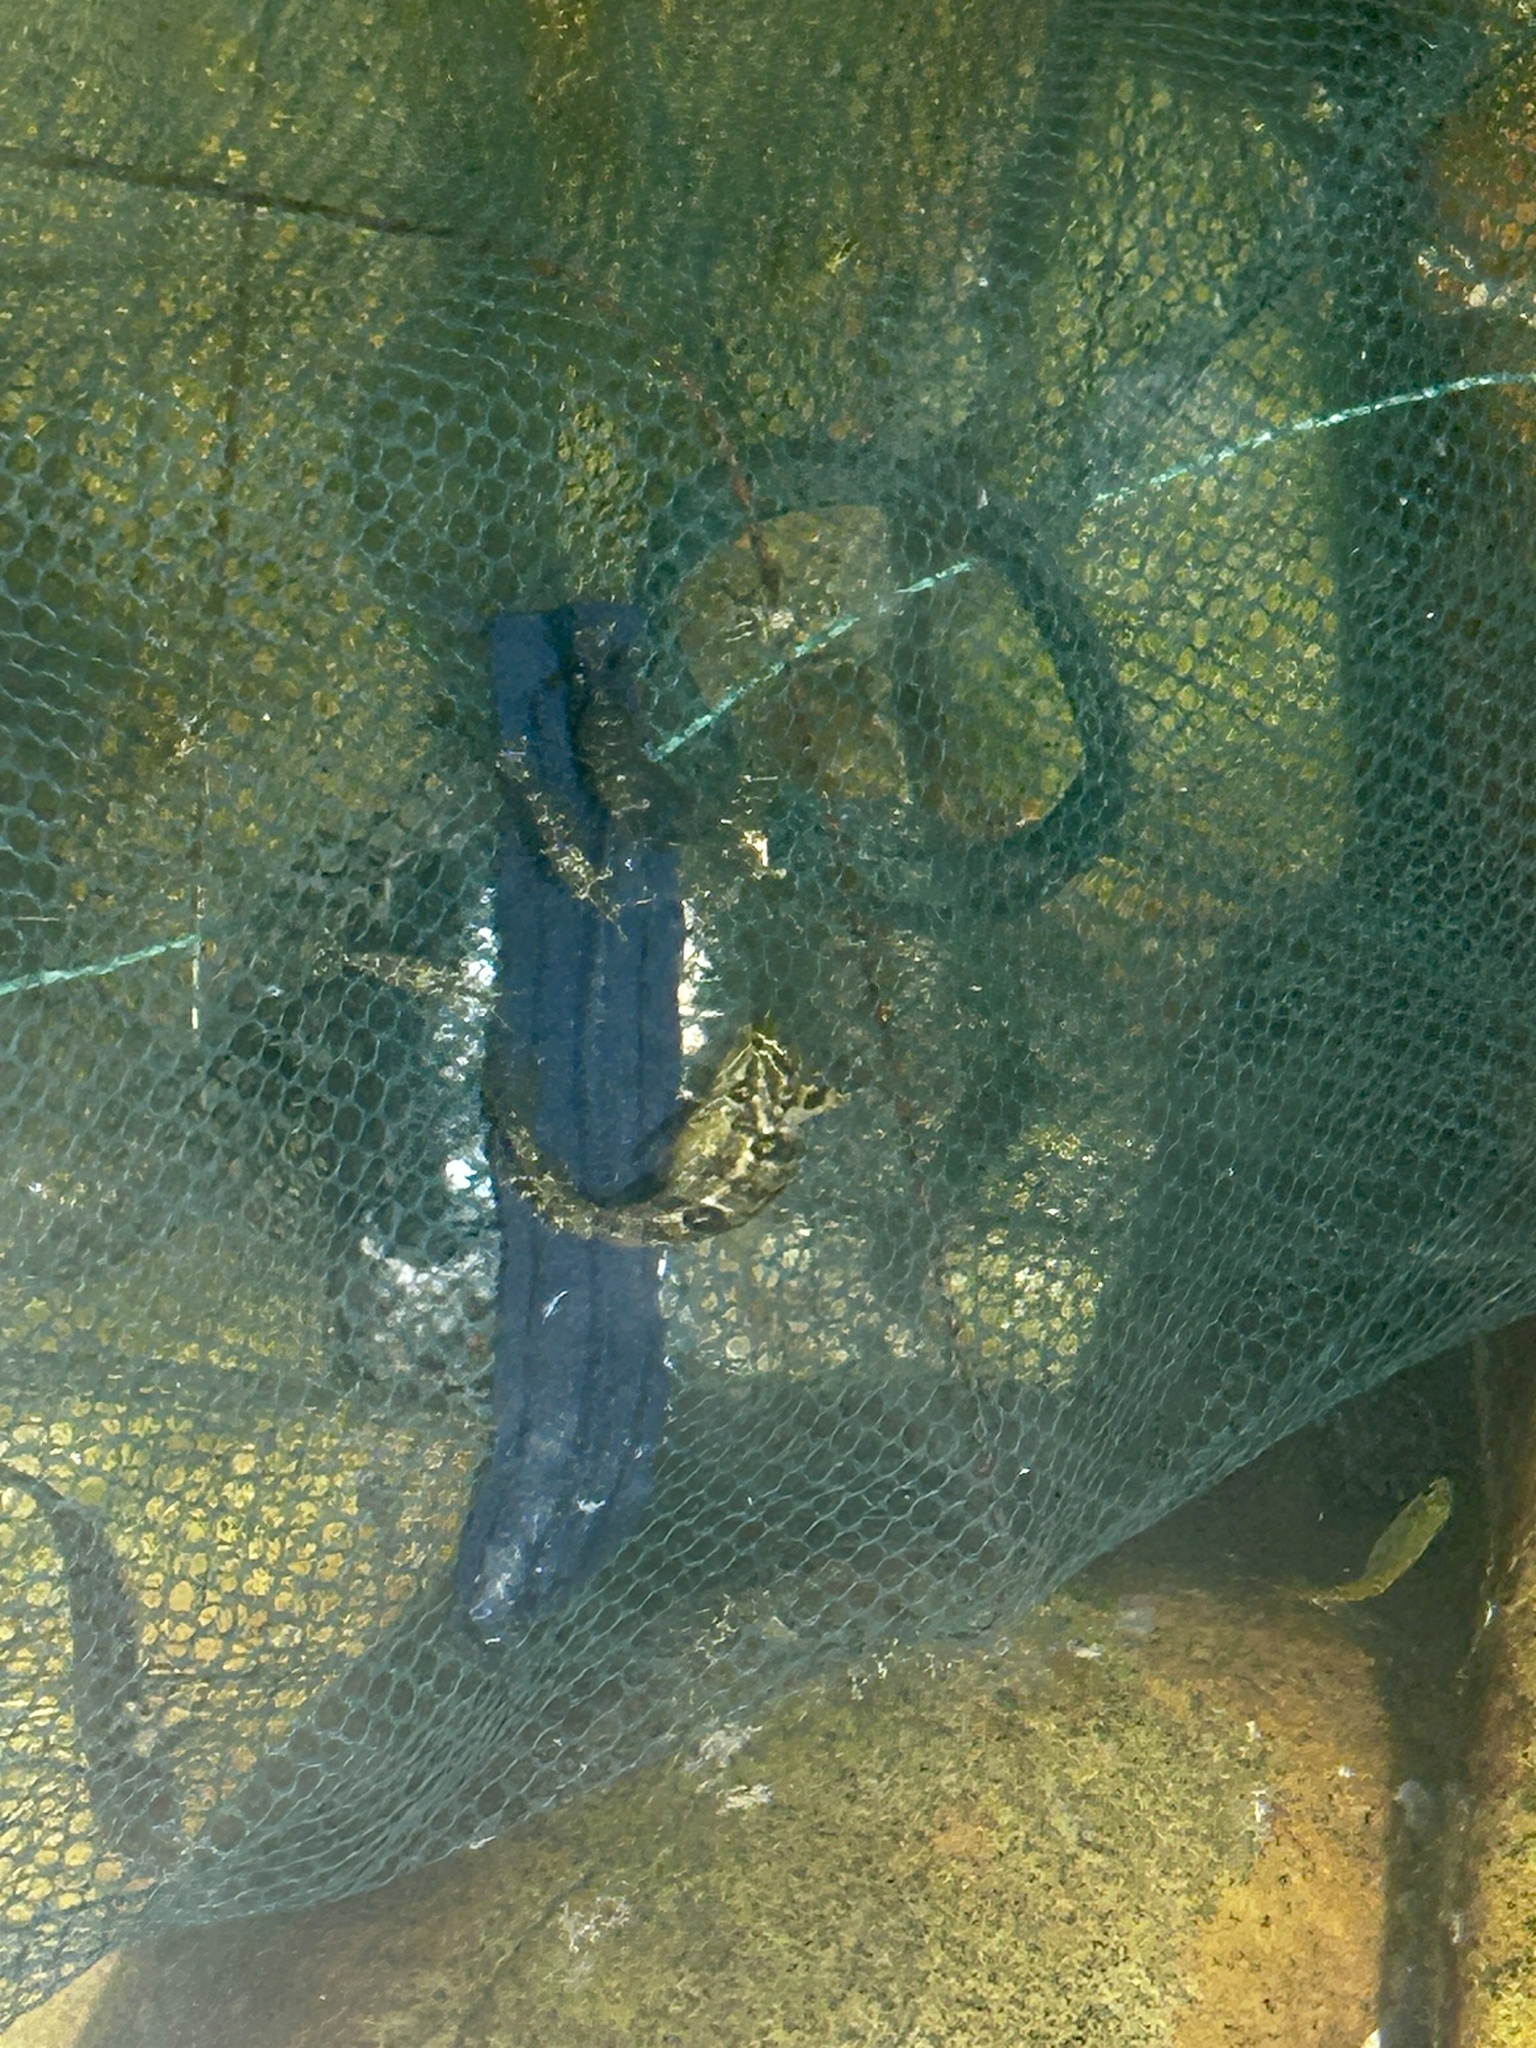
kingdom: Animalia
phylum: Chordata
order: Perciformes
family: Clinidae
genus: Clinus
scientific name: Clinus superciliosus
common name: Super klipfish
